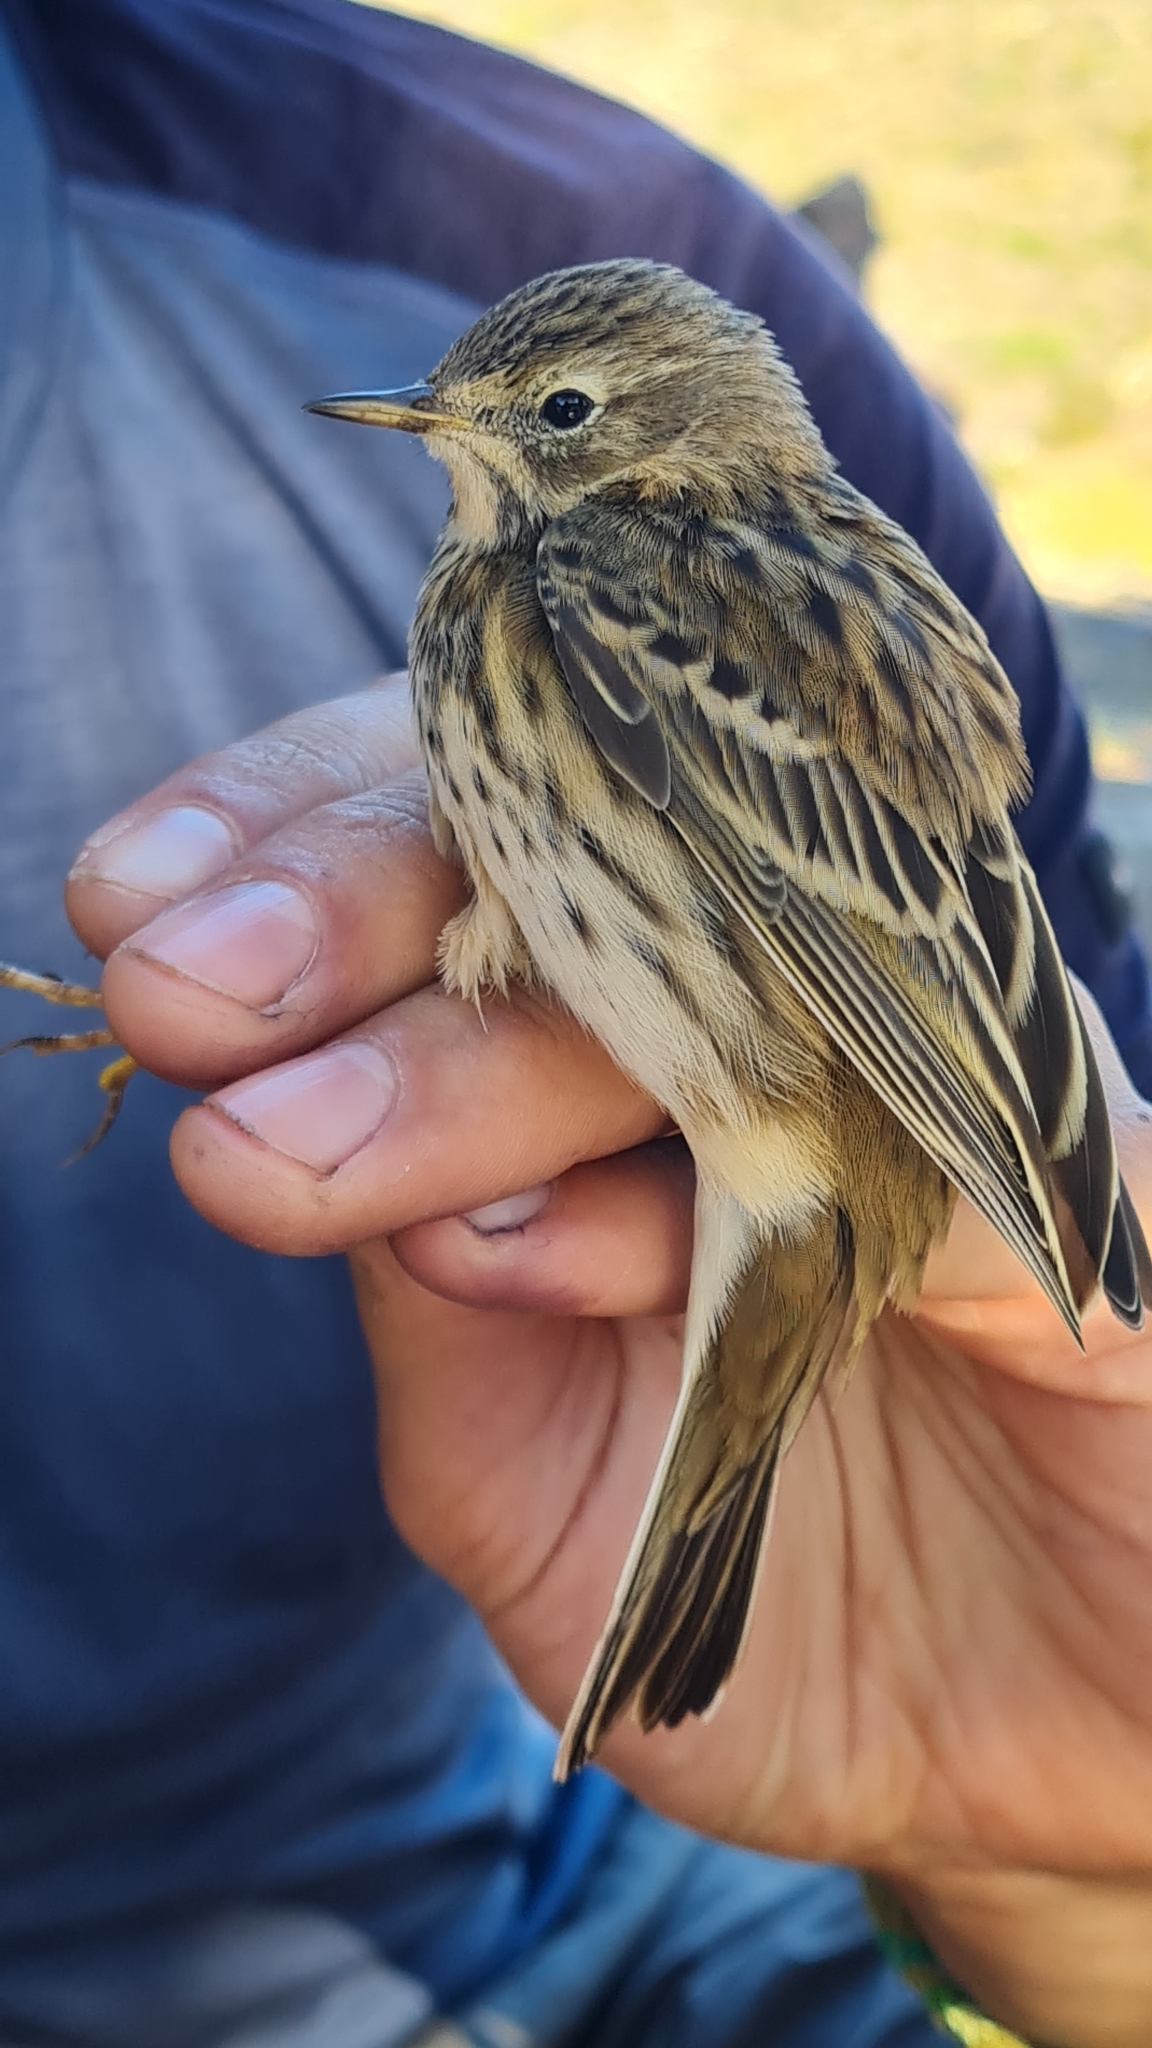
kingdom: Animalia
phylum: Chordata
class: Aves
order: Passeriformes
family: Motacillidae
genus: Anthus
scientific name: Anthus pratensis
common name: Meadow pipit
